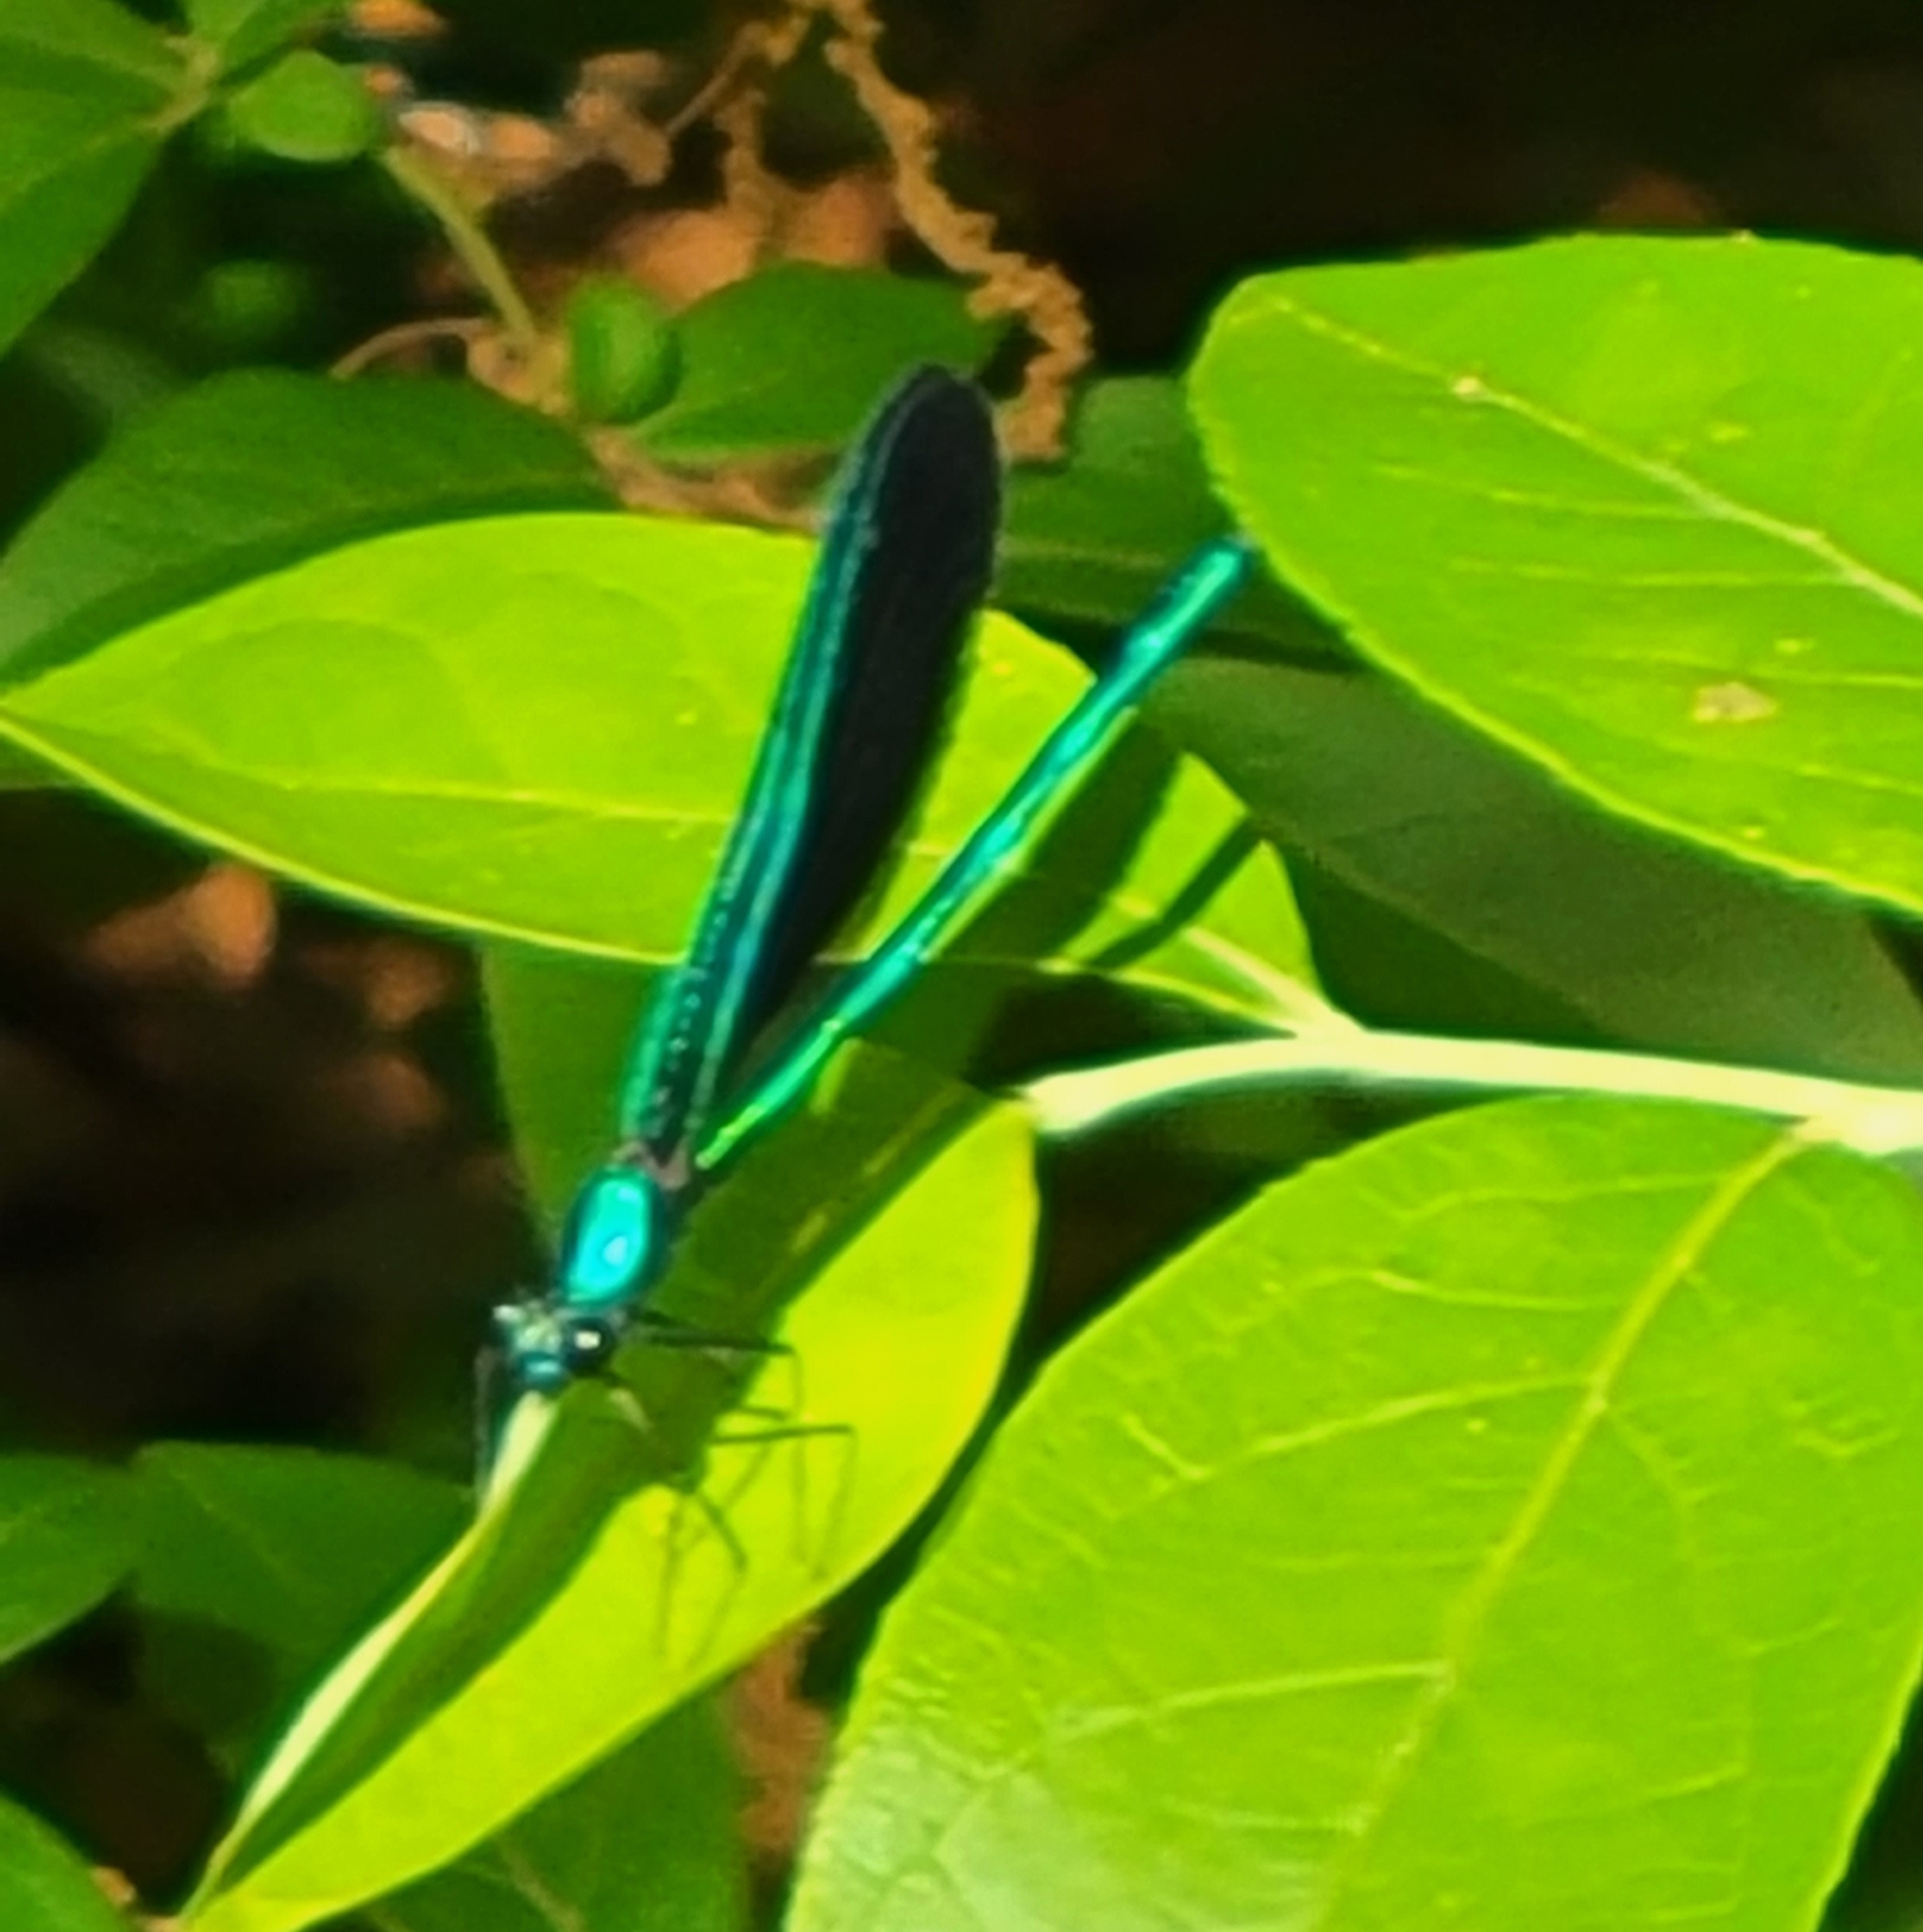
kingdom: Animalia
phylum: Arthropoda
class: Insecta
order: Odonata
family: Calopterygidae
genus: Calopteryx
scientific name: Calopteryx maculata
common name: Ebony jewelwing
